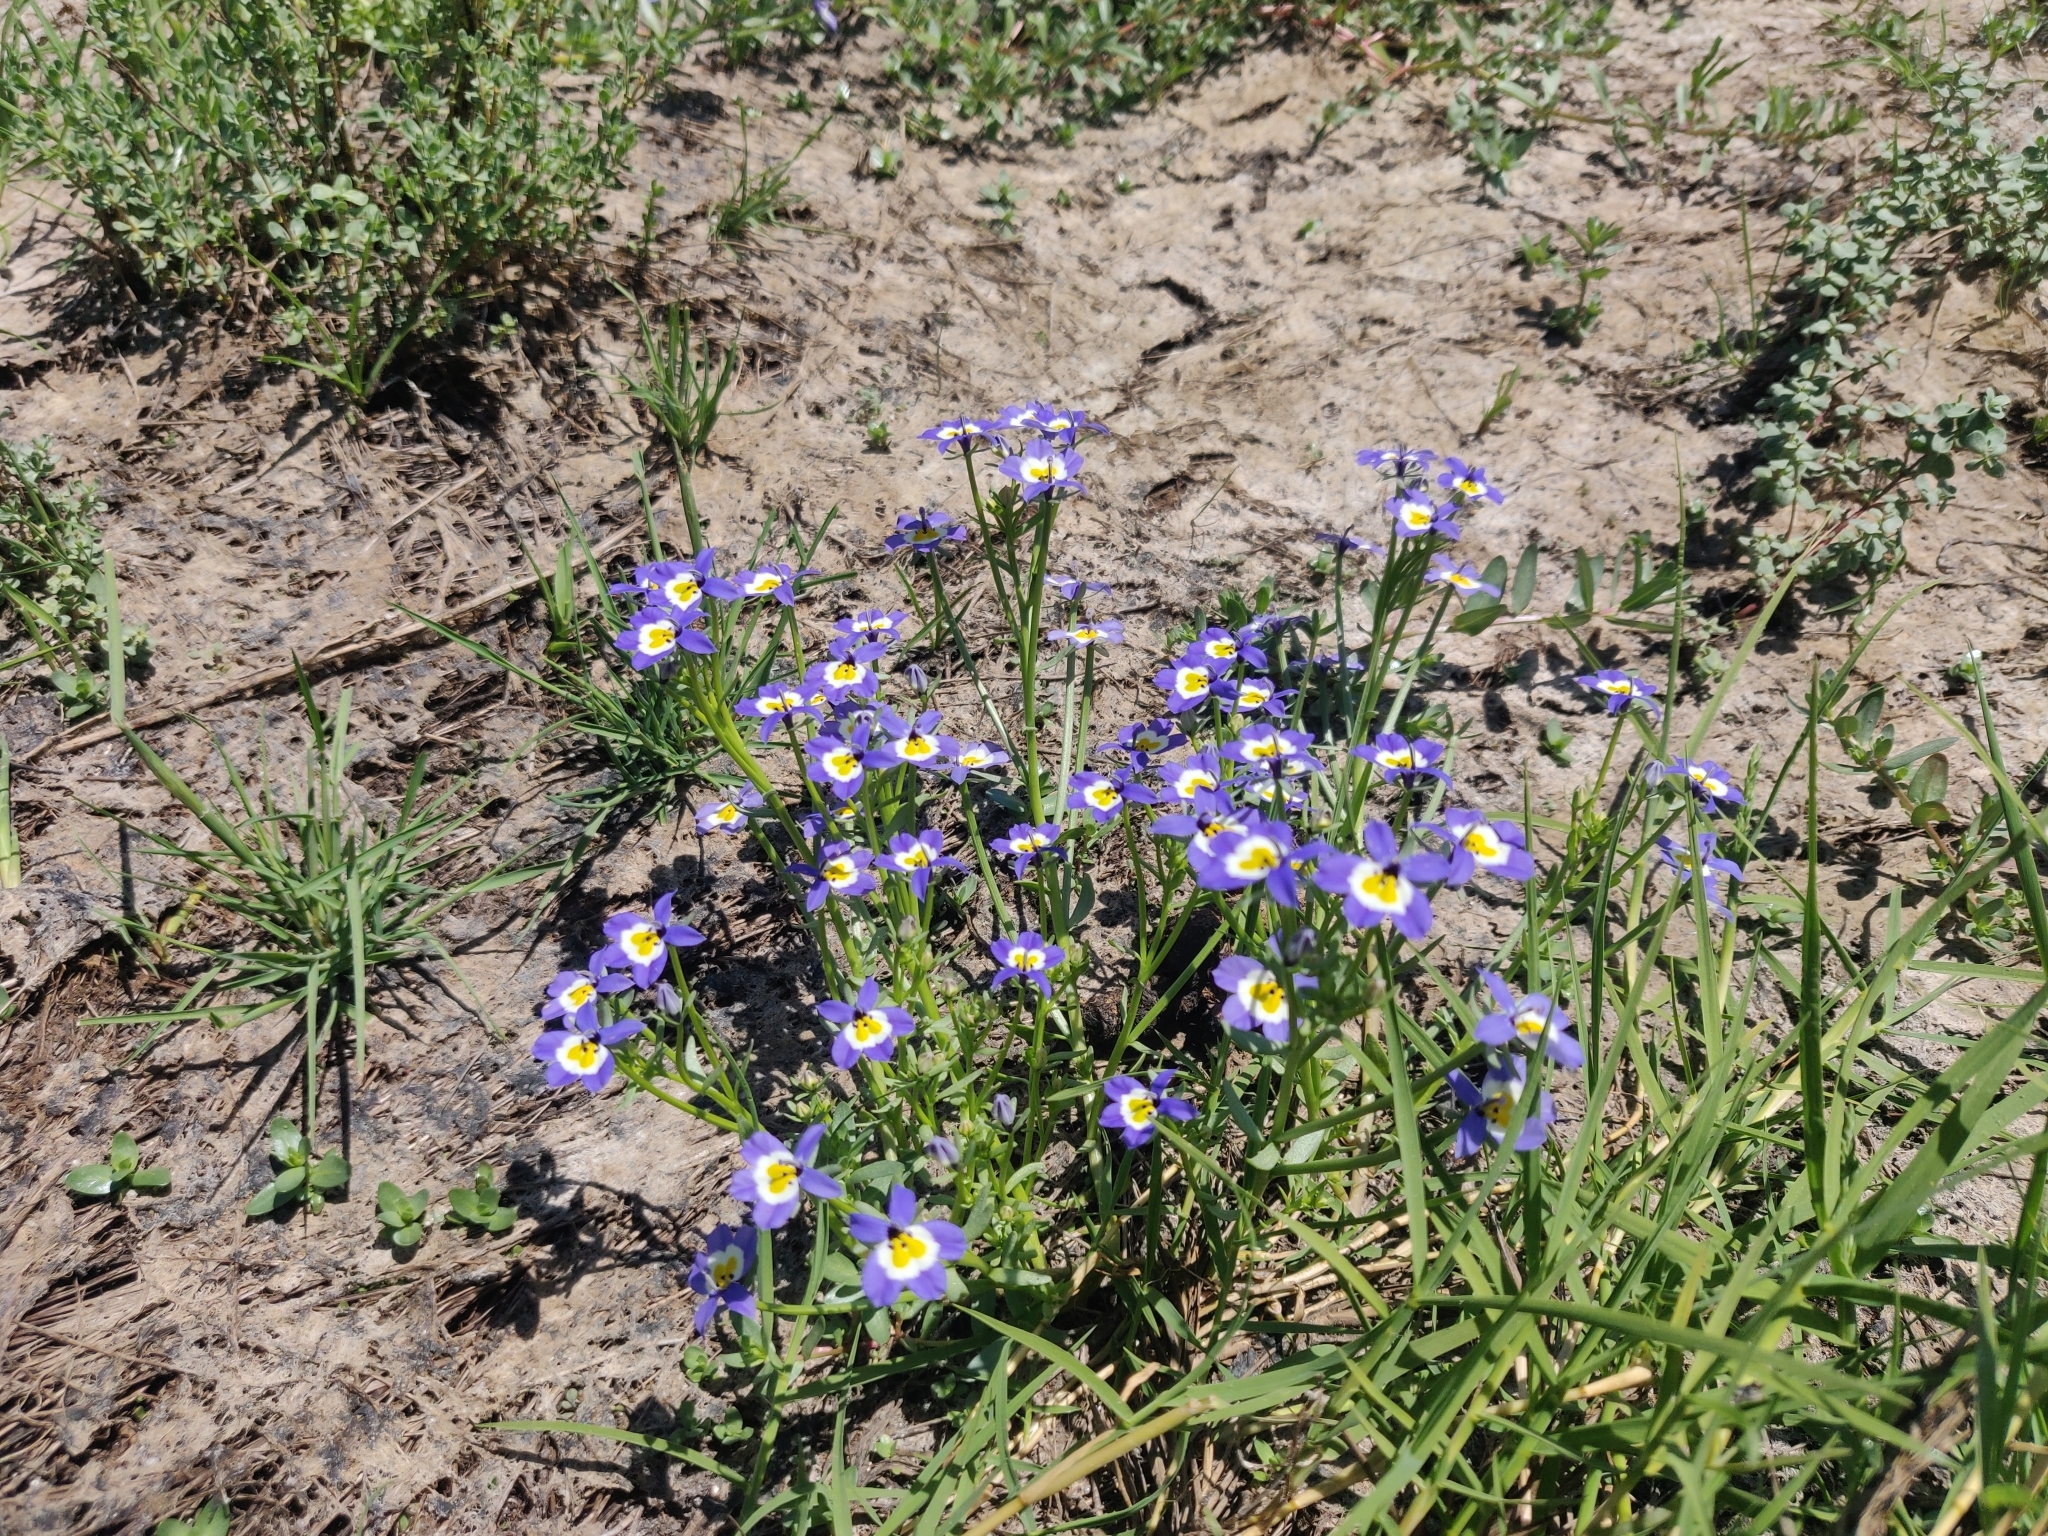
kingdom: Plantae
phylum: Tracheophyta
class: Magnoliopsida
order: Asterales
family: Campanulaceae
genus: Downingia
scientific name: Downingia pulchella
